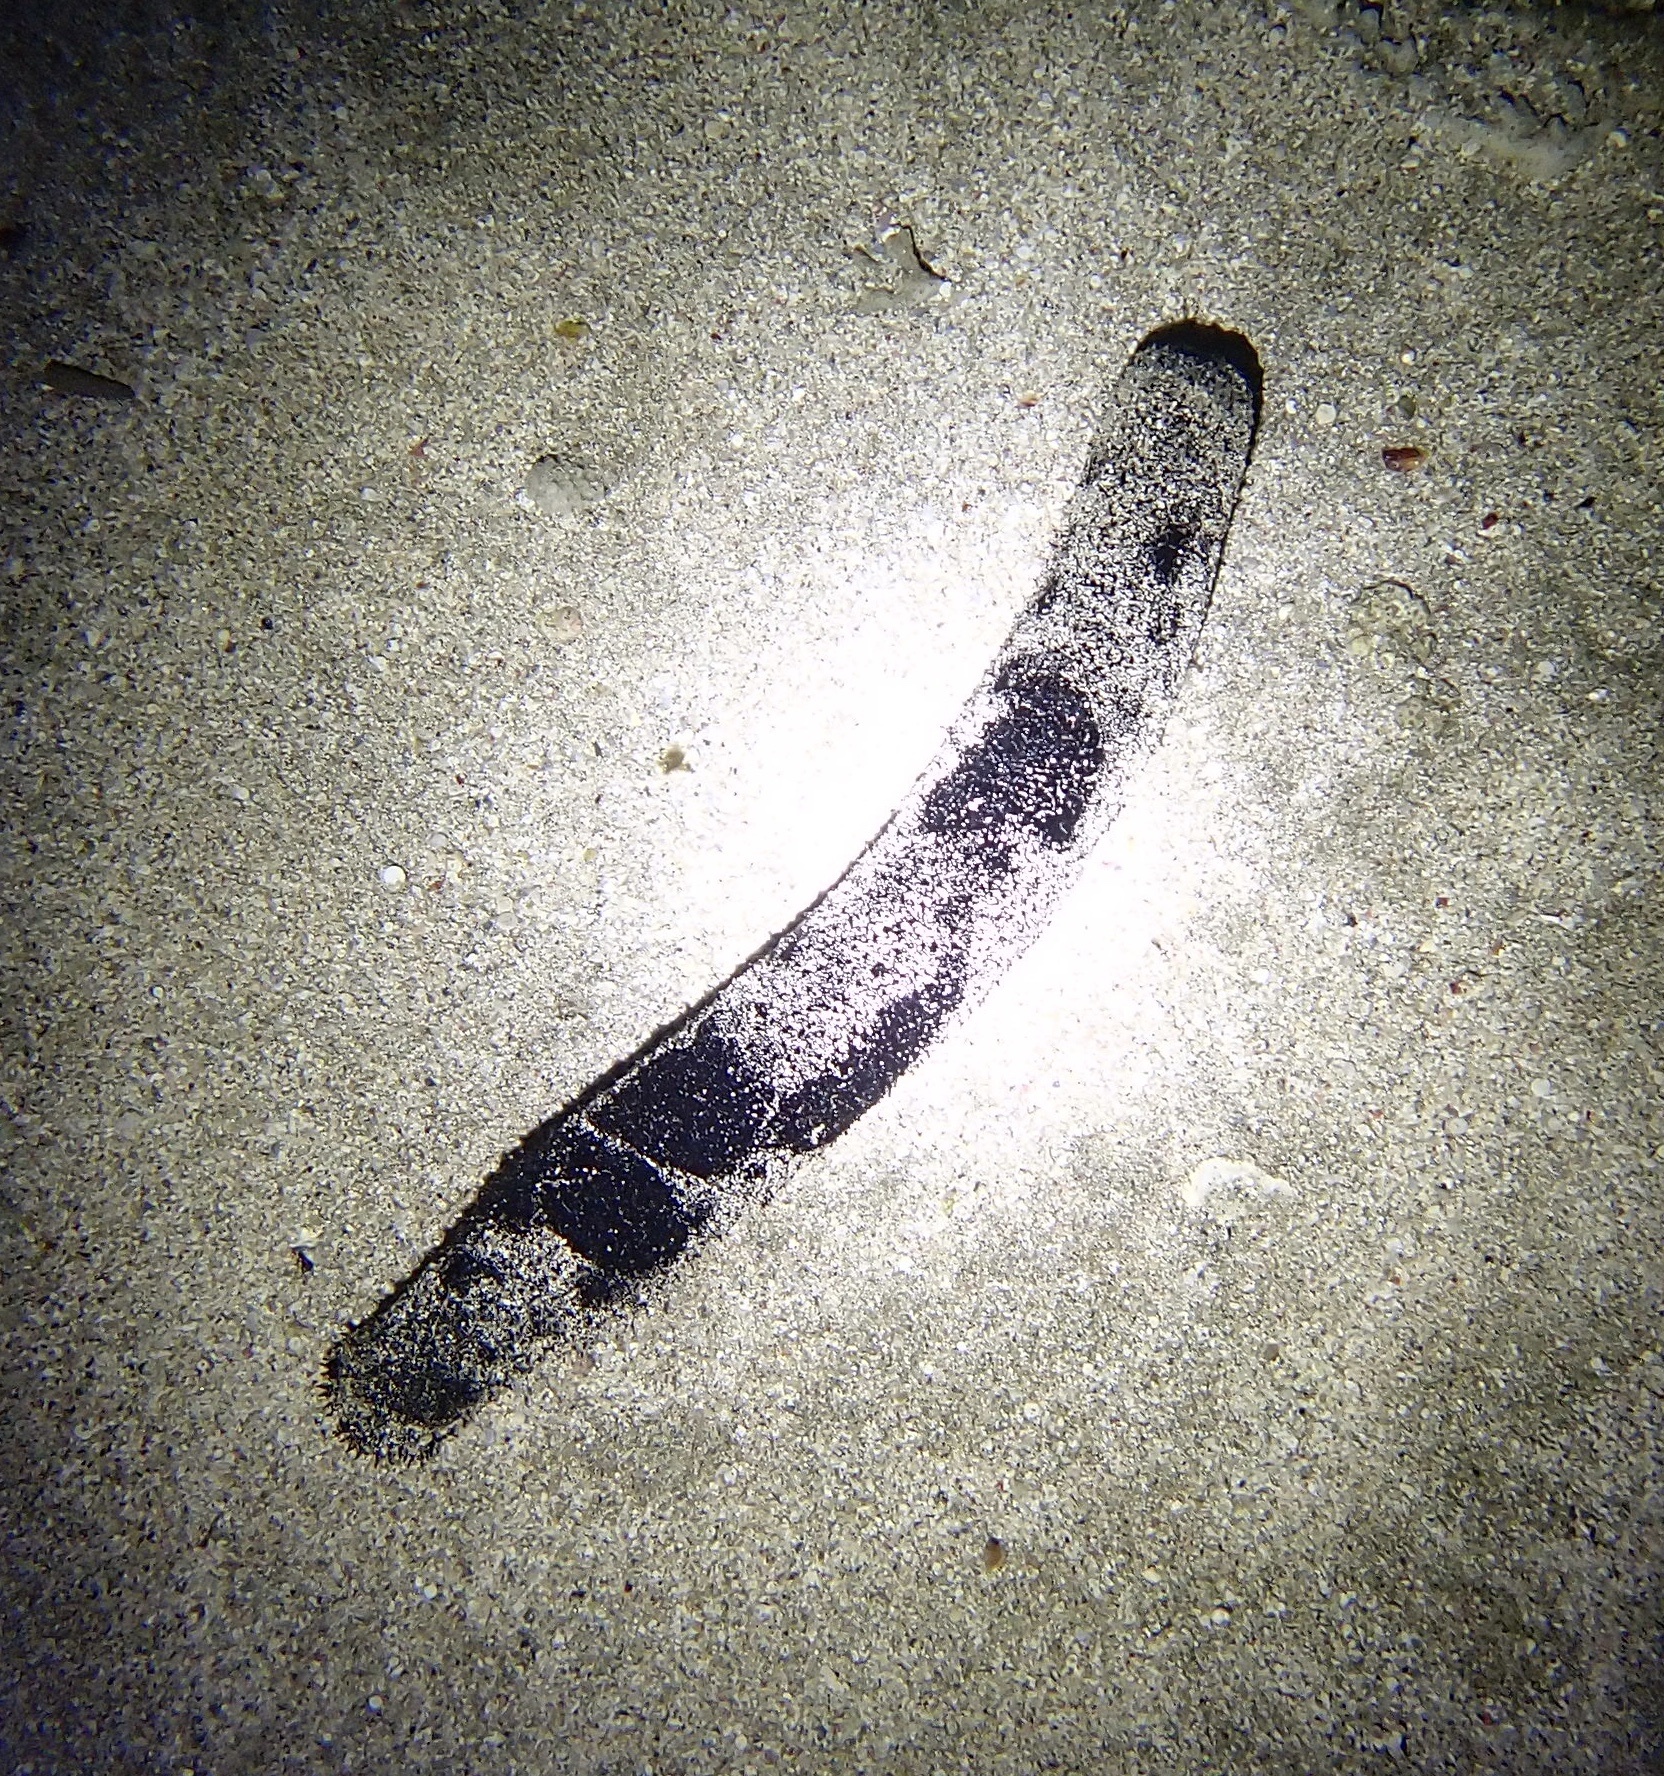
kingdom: Animalia
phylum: Echinodermata
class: Holothuroidea
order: Holothuriida
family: Holothuriidae
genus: Holothuria
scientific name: Holothuria atra
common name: Lollyfish
